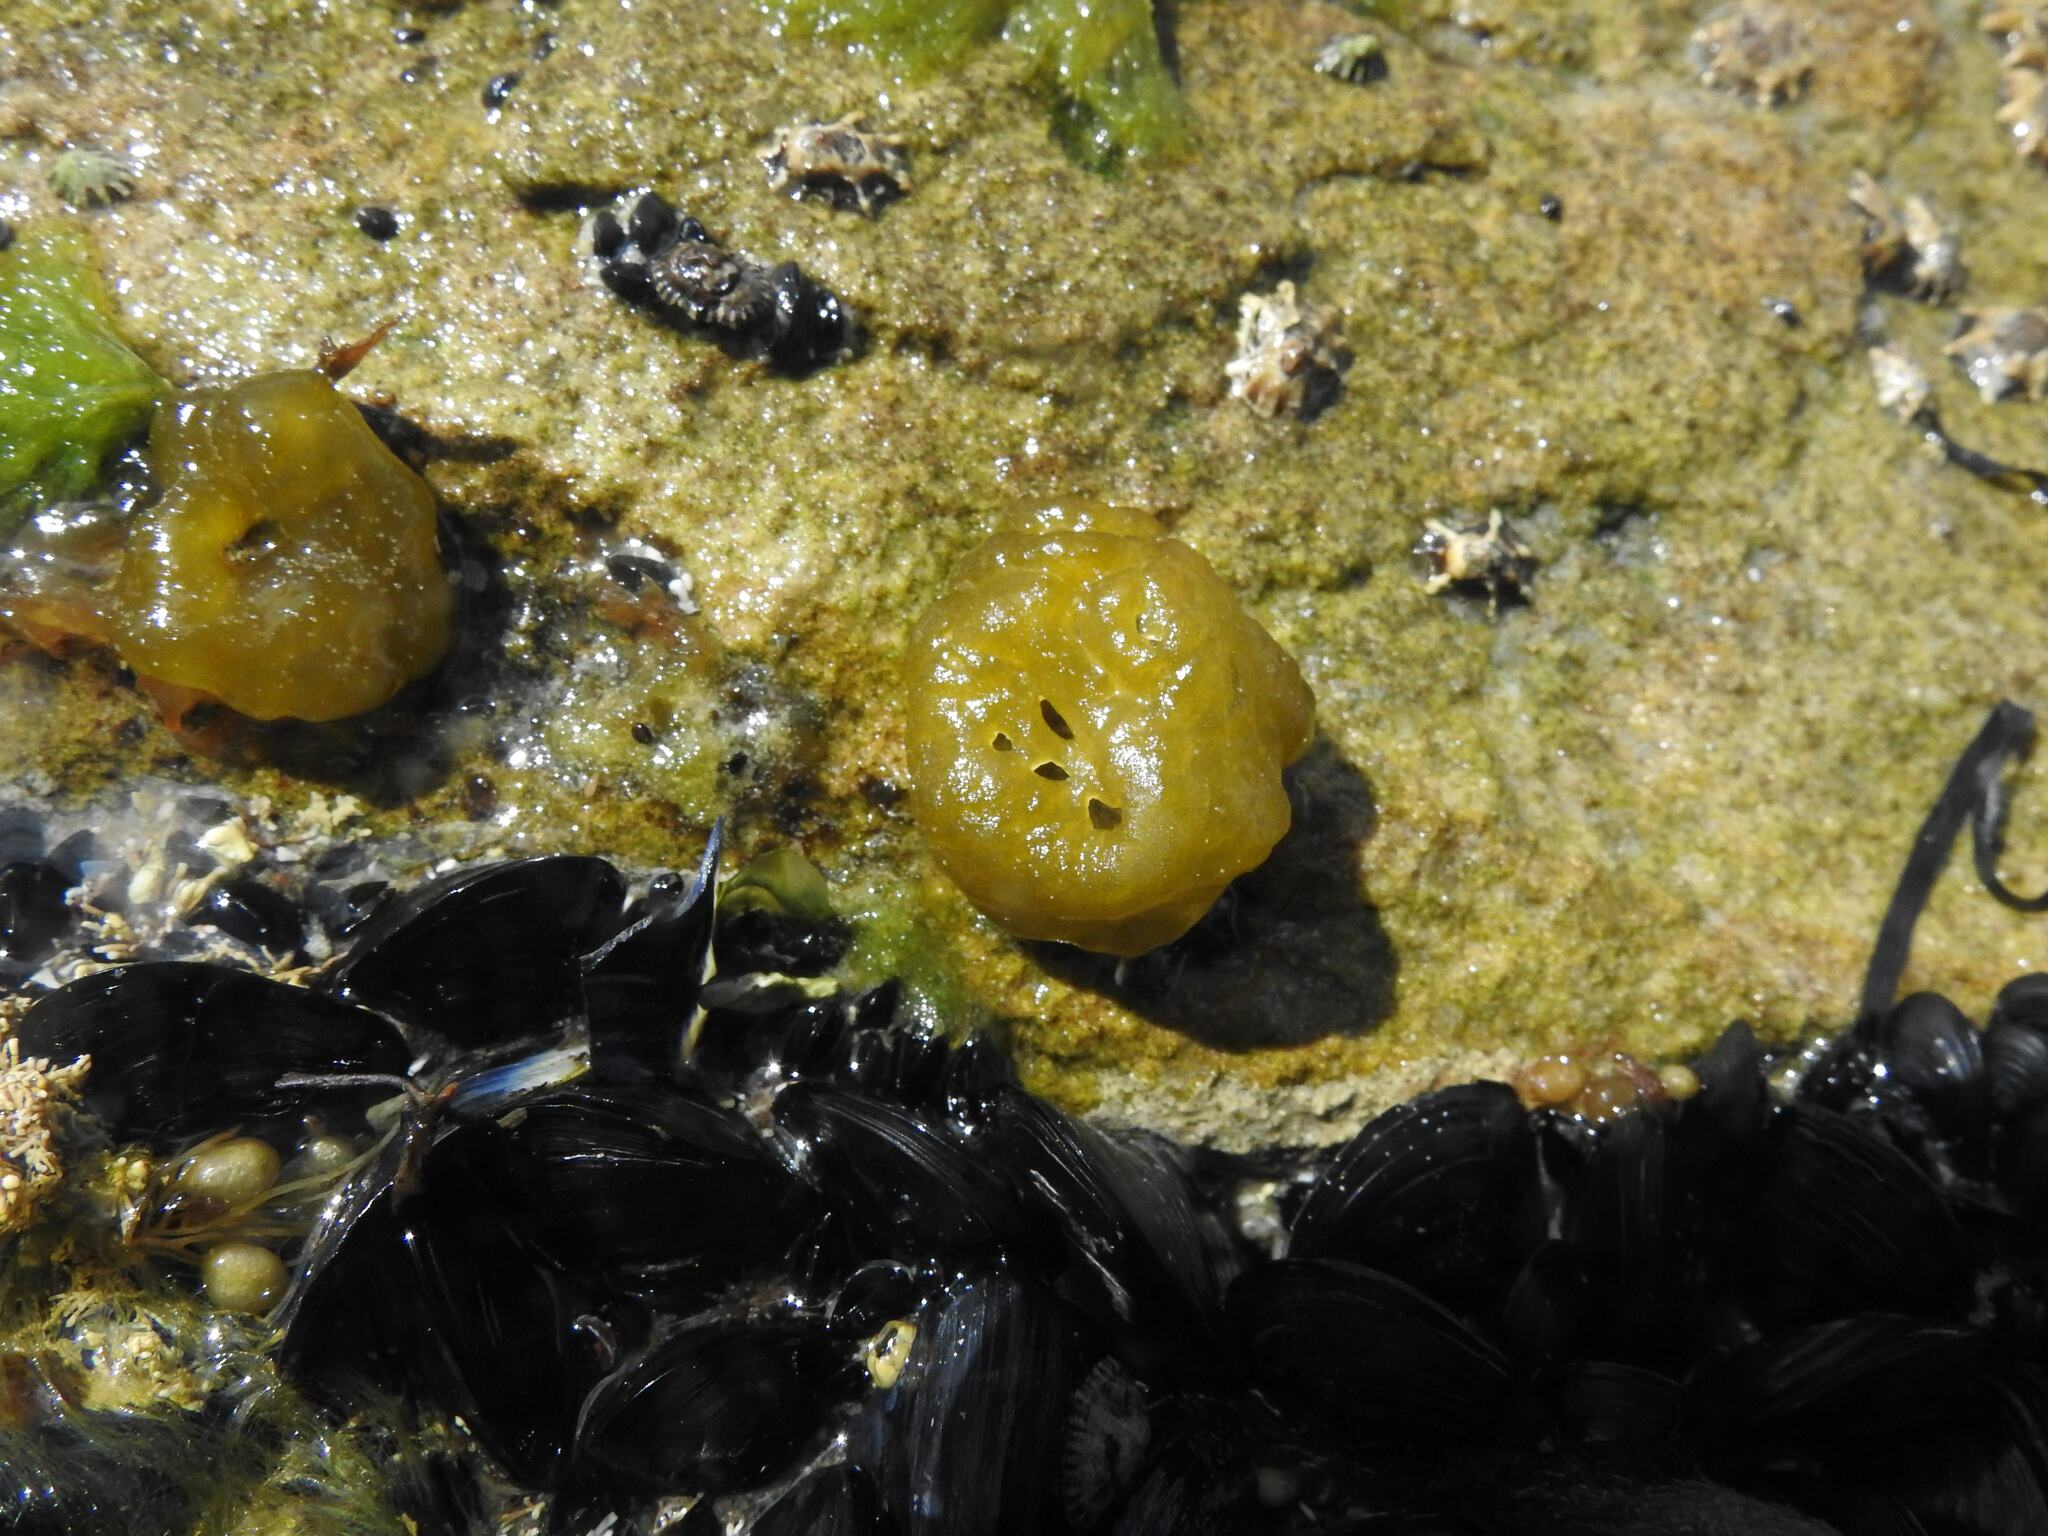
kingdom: Chromista
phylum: Ochrophyta
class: Phaeophyceae
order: Scytosiphonales
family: Scytosiphonaceae
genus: Colpomenia
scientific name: Colpomenia sinuosa
